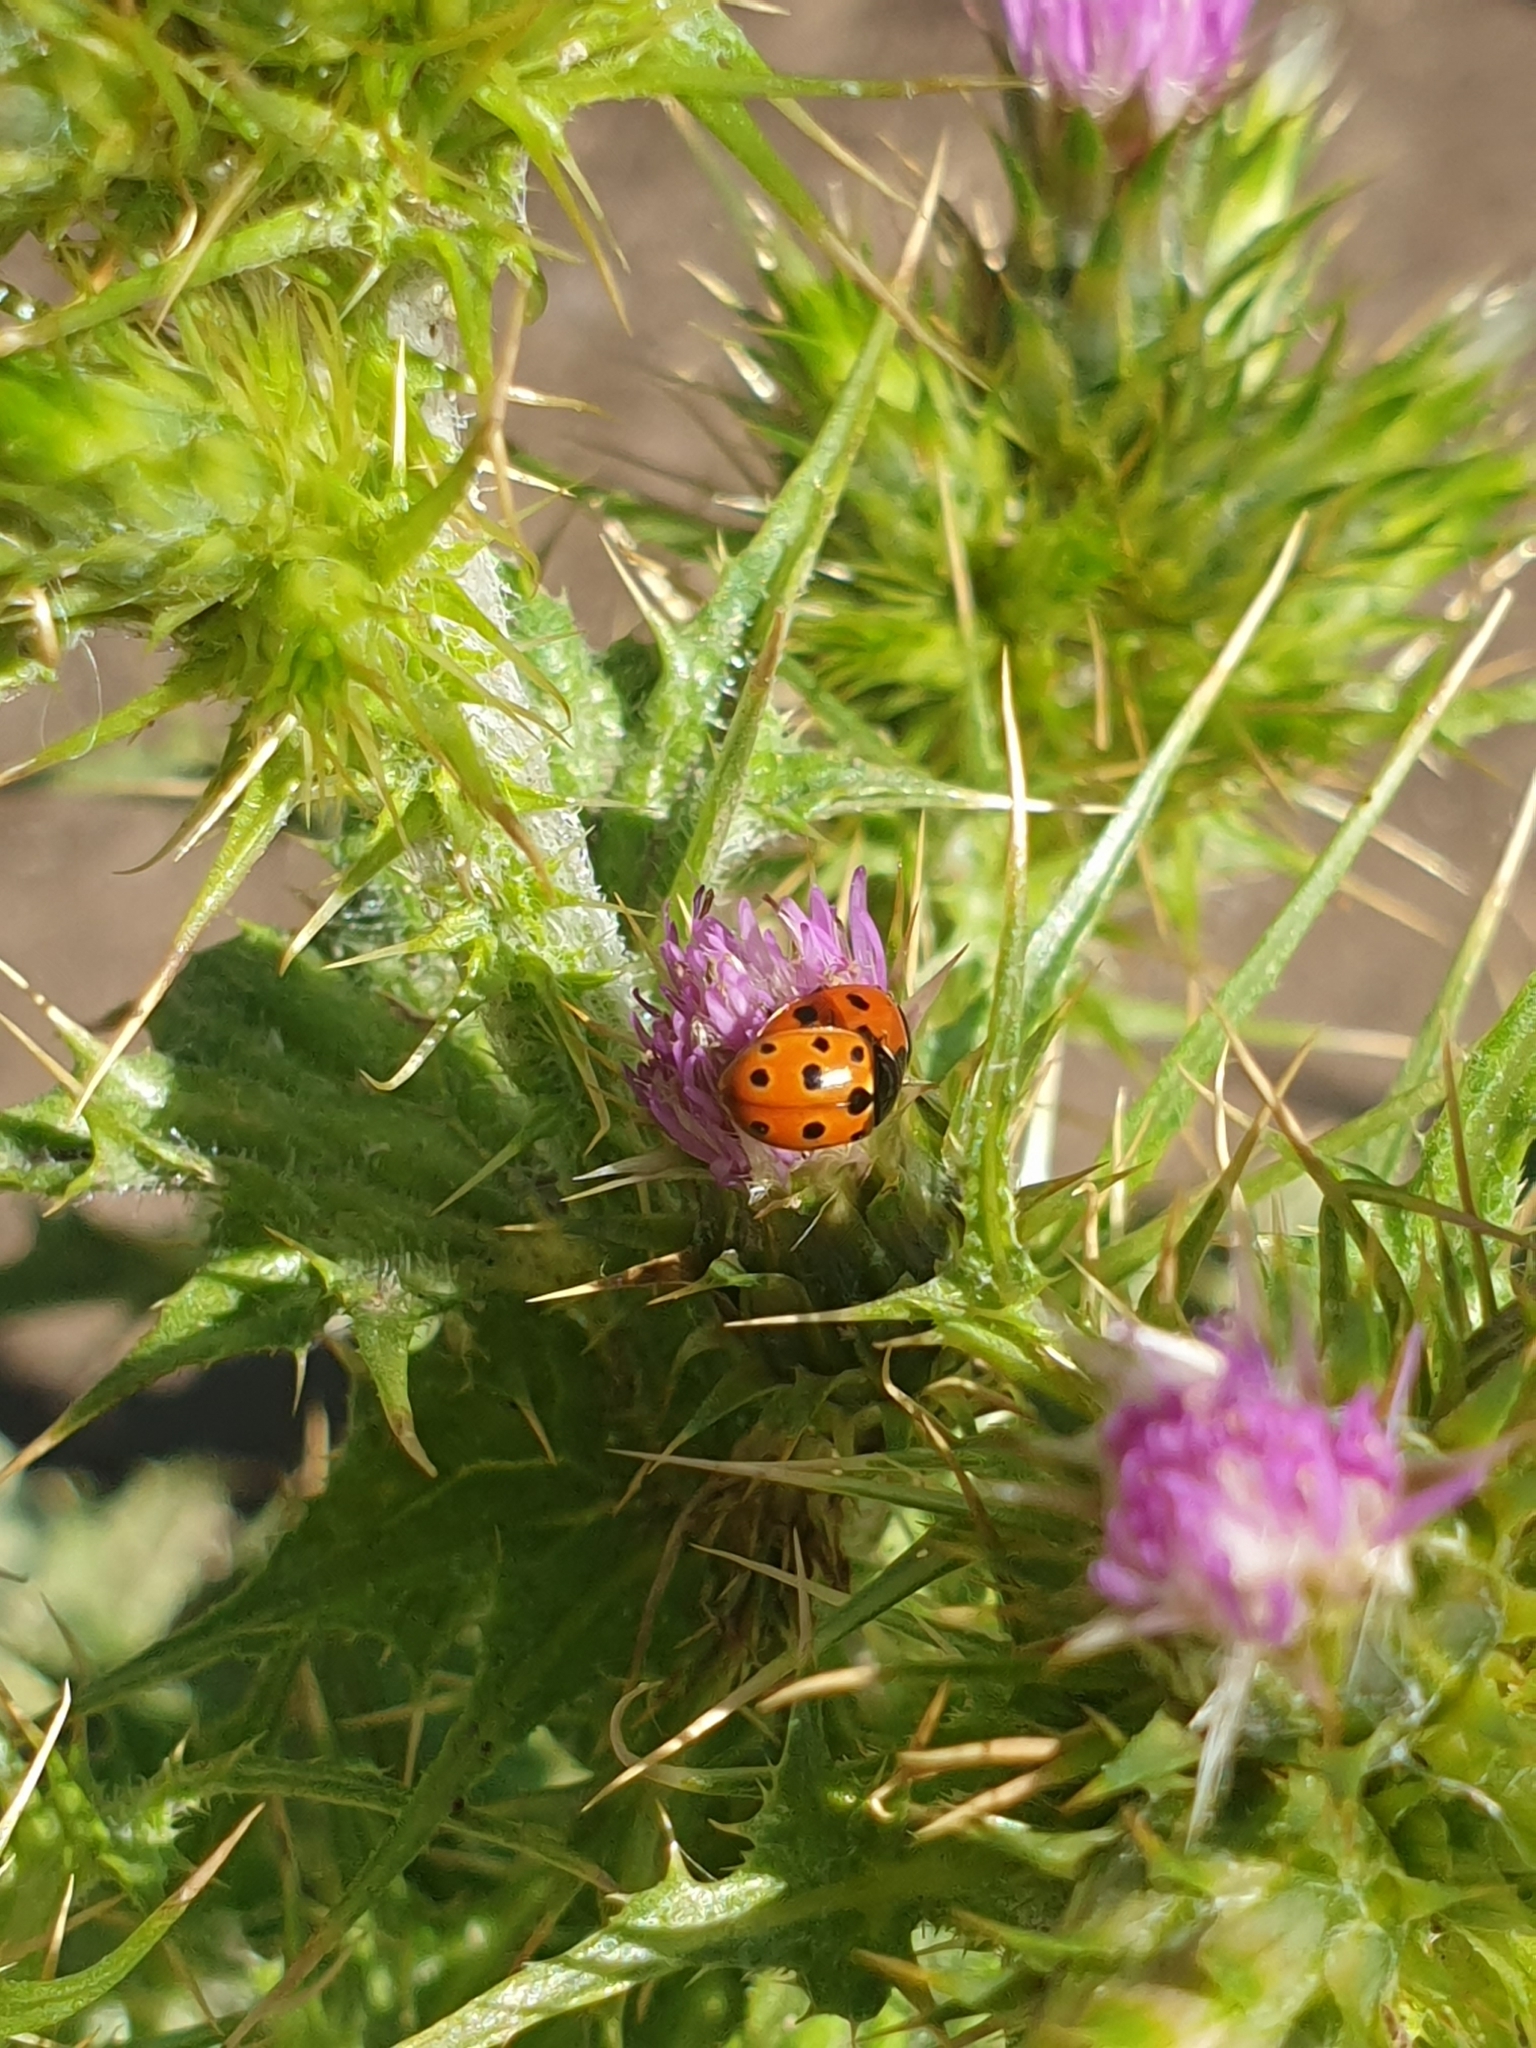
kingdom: Animalia
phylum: Arthropoda
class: Insecta
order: Coleoptera
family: Coccinellidae
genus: Coccinella
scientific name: Coccinella undecimpunctata
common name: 11-spot ladybird
